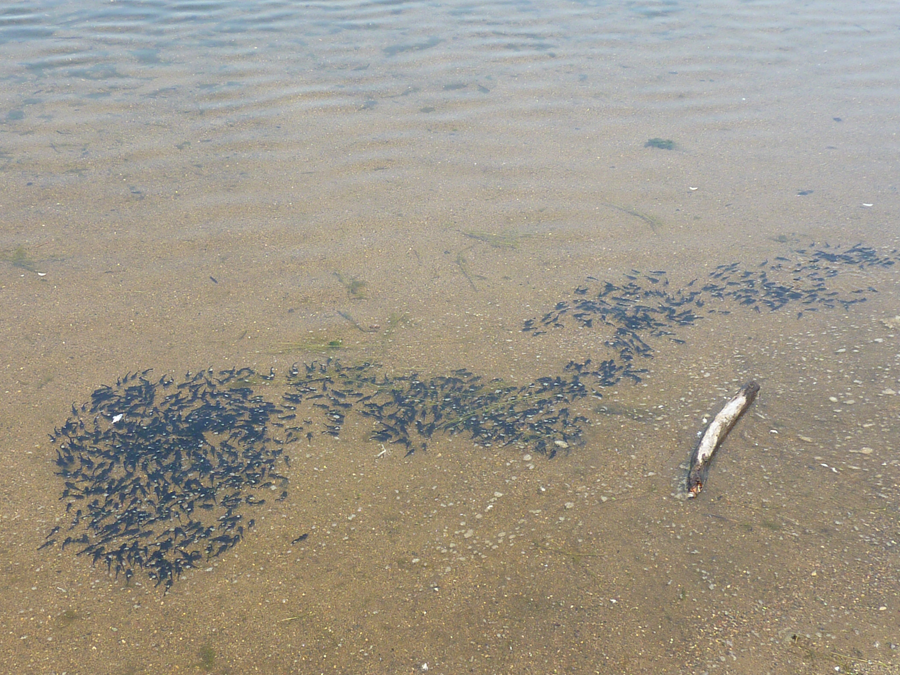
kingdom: Animalia
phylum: Chordata
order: Siluriformes
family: Ictaluridae
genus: Ameiurus
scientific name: Ameiurus melas
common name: Black bullhead
